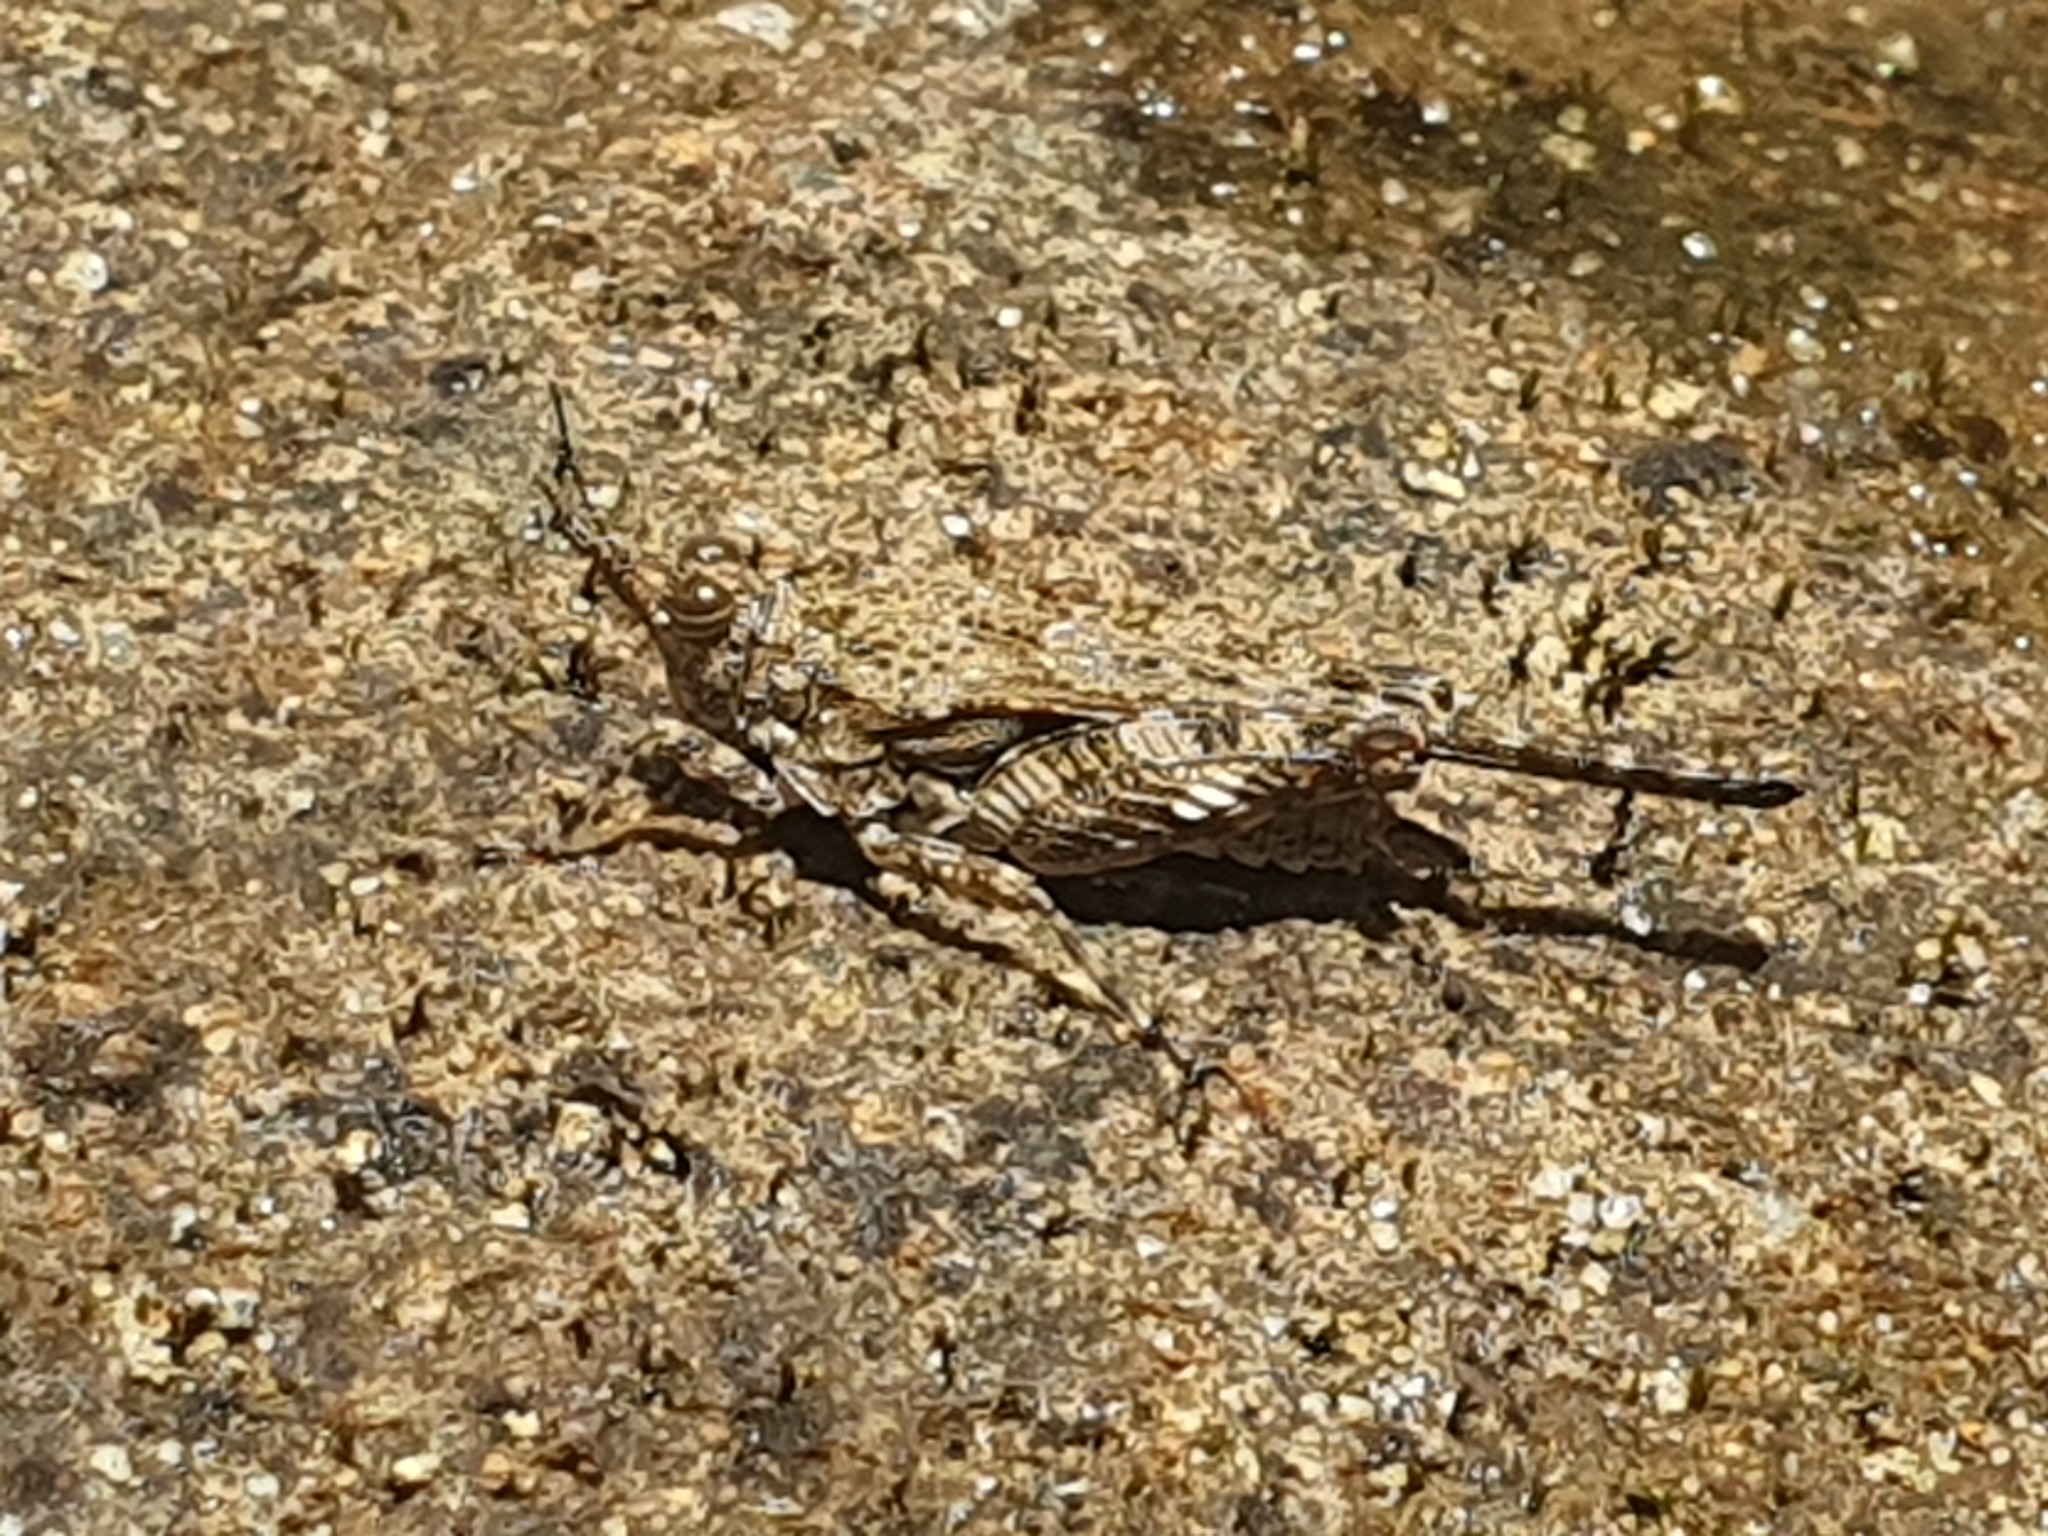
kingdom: Animalia
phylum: Arthropoda
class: Insecta
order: Orthoptera
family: Tetrigidae
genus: Pseudosystolederus
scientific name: Pseudosystolederus sikorai
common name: Madagascar boulder pygmy grasshopper
